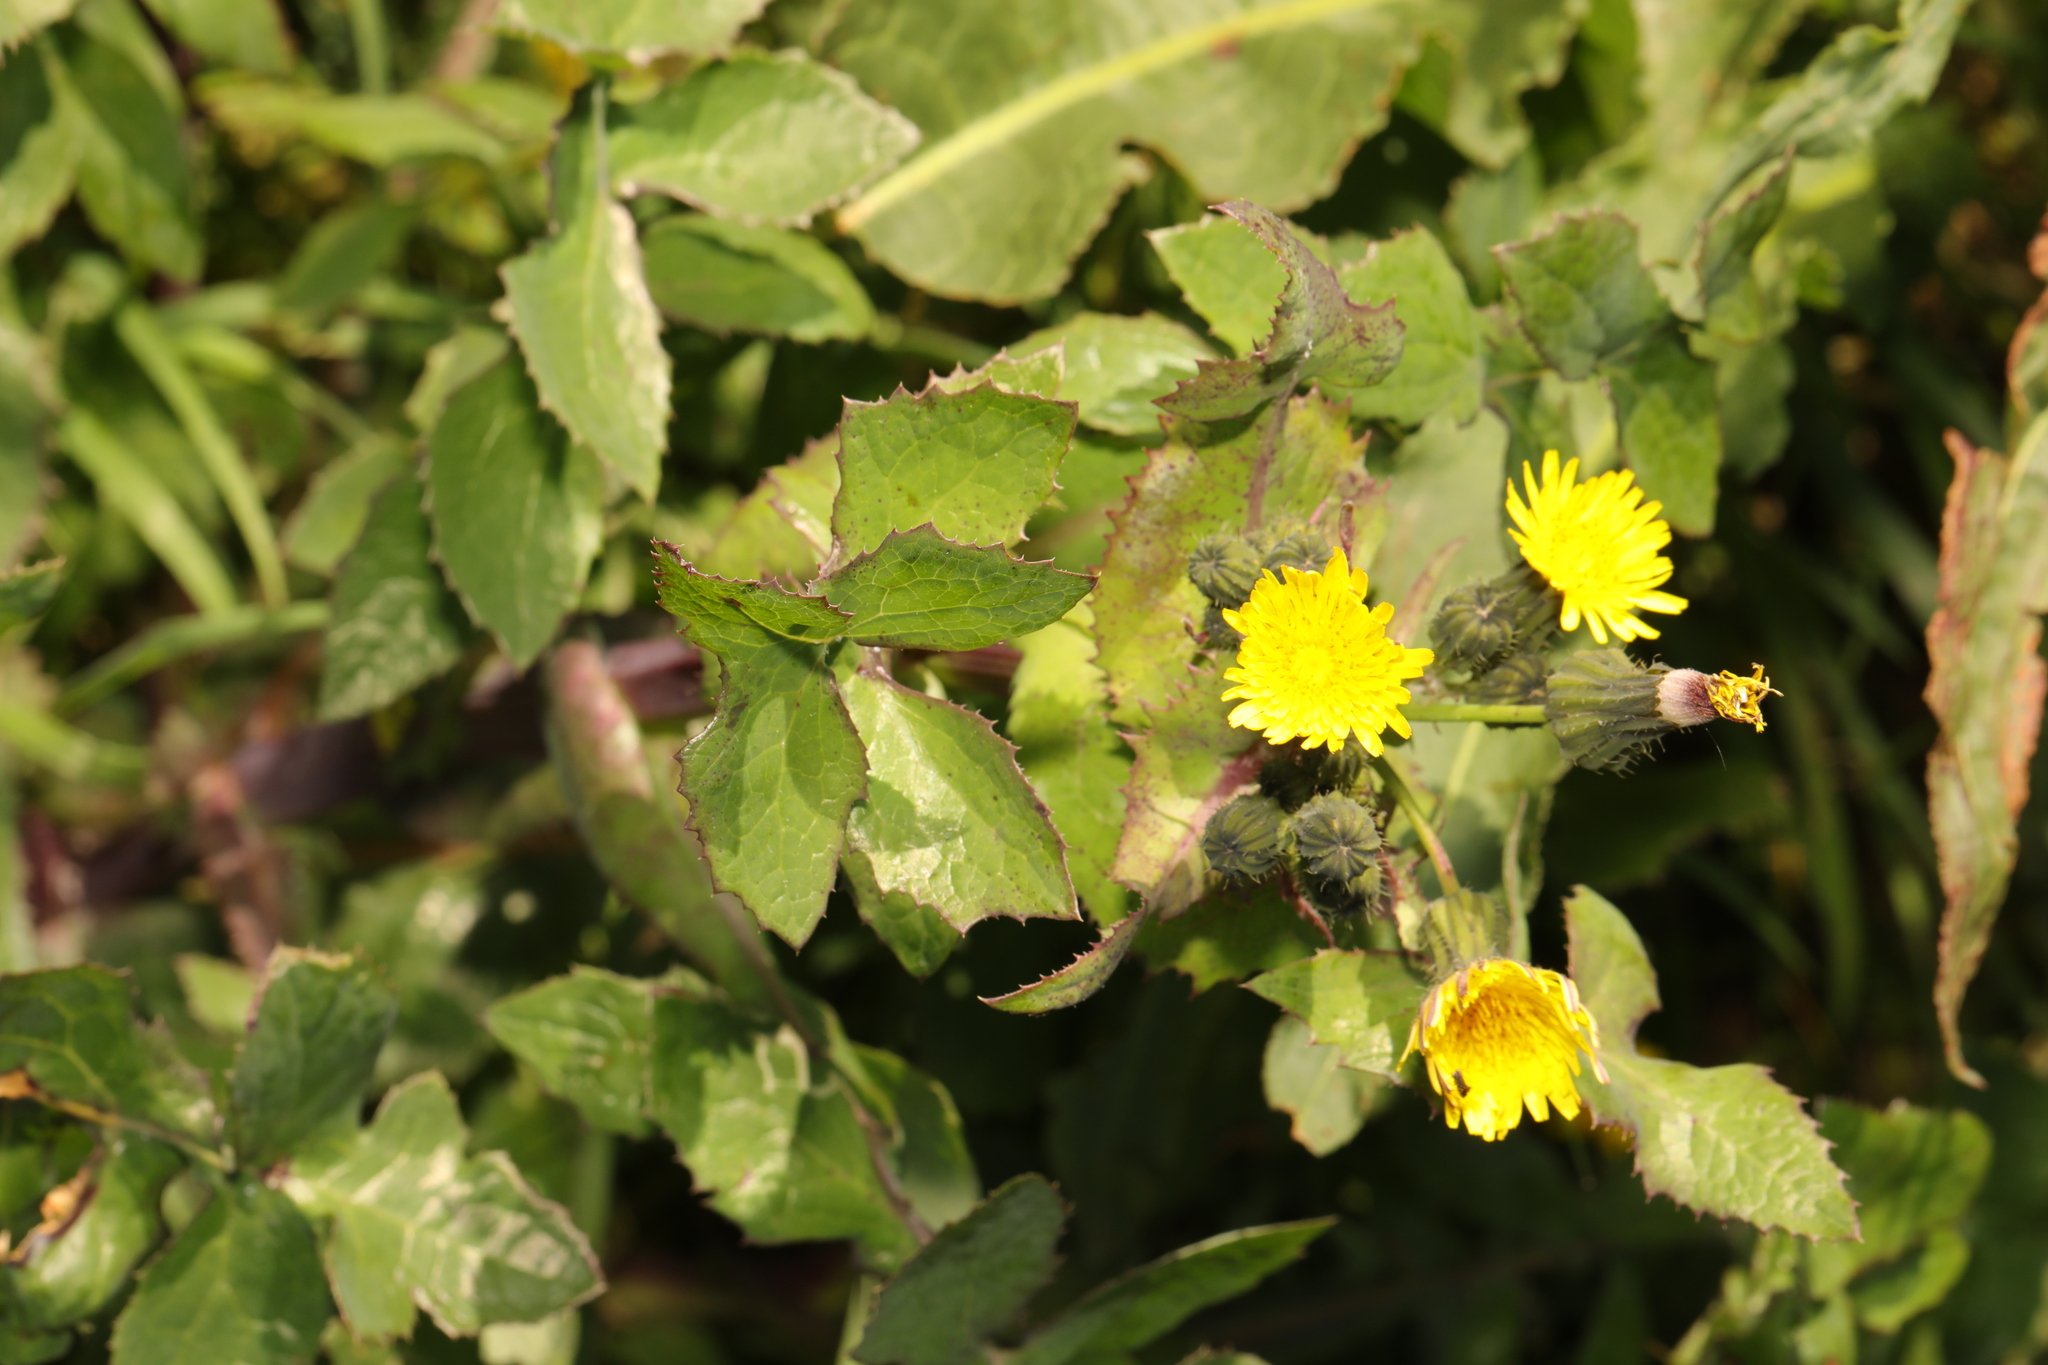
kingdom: Plantae
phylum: Tracheophyta
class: Magnoliopsida
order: Asterales
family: Asteraceae
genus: Sonchus
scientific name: Sonchus oleraceus
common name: Common sowthistle
